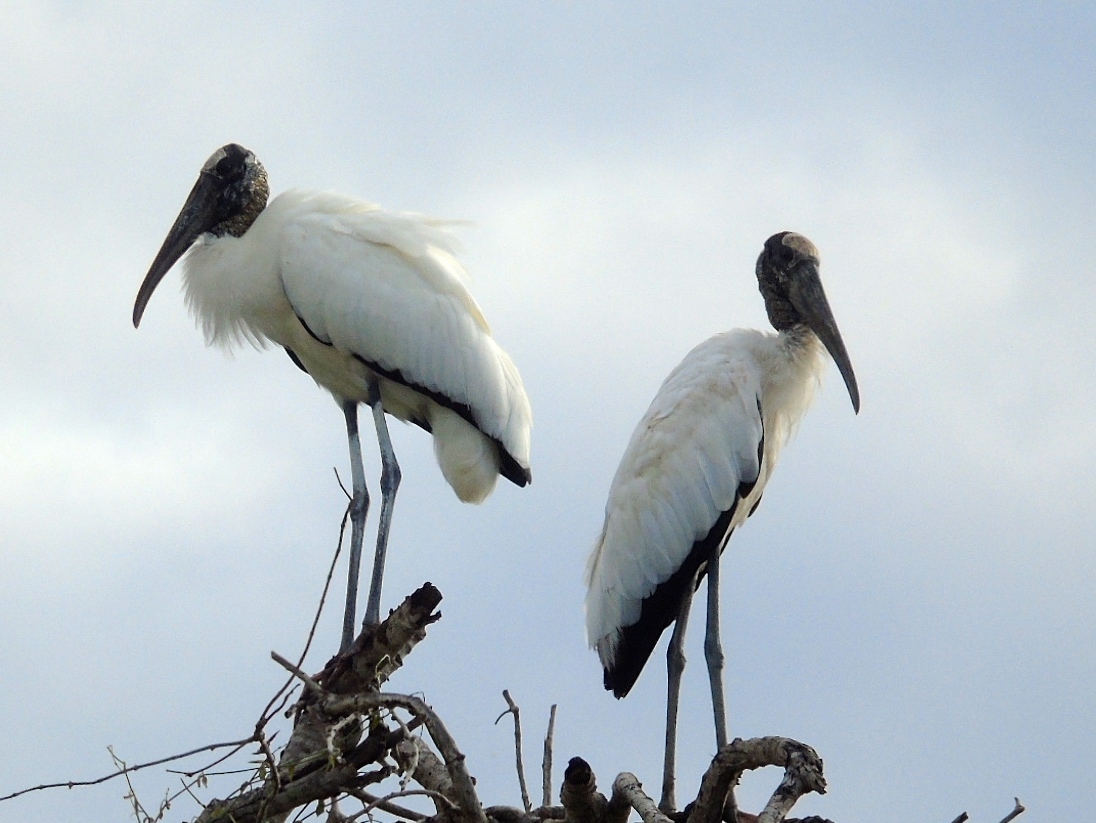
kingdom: Animalia
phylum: Chordata
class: Aves
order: Ciconiiformes
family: Ciconiidae
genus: Mycteria
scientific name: Mycteria americana
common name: Wood stork
